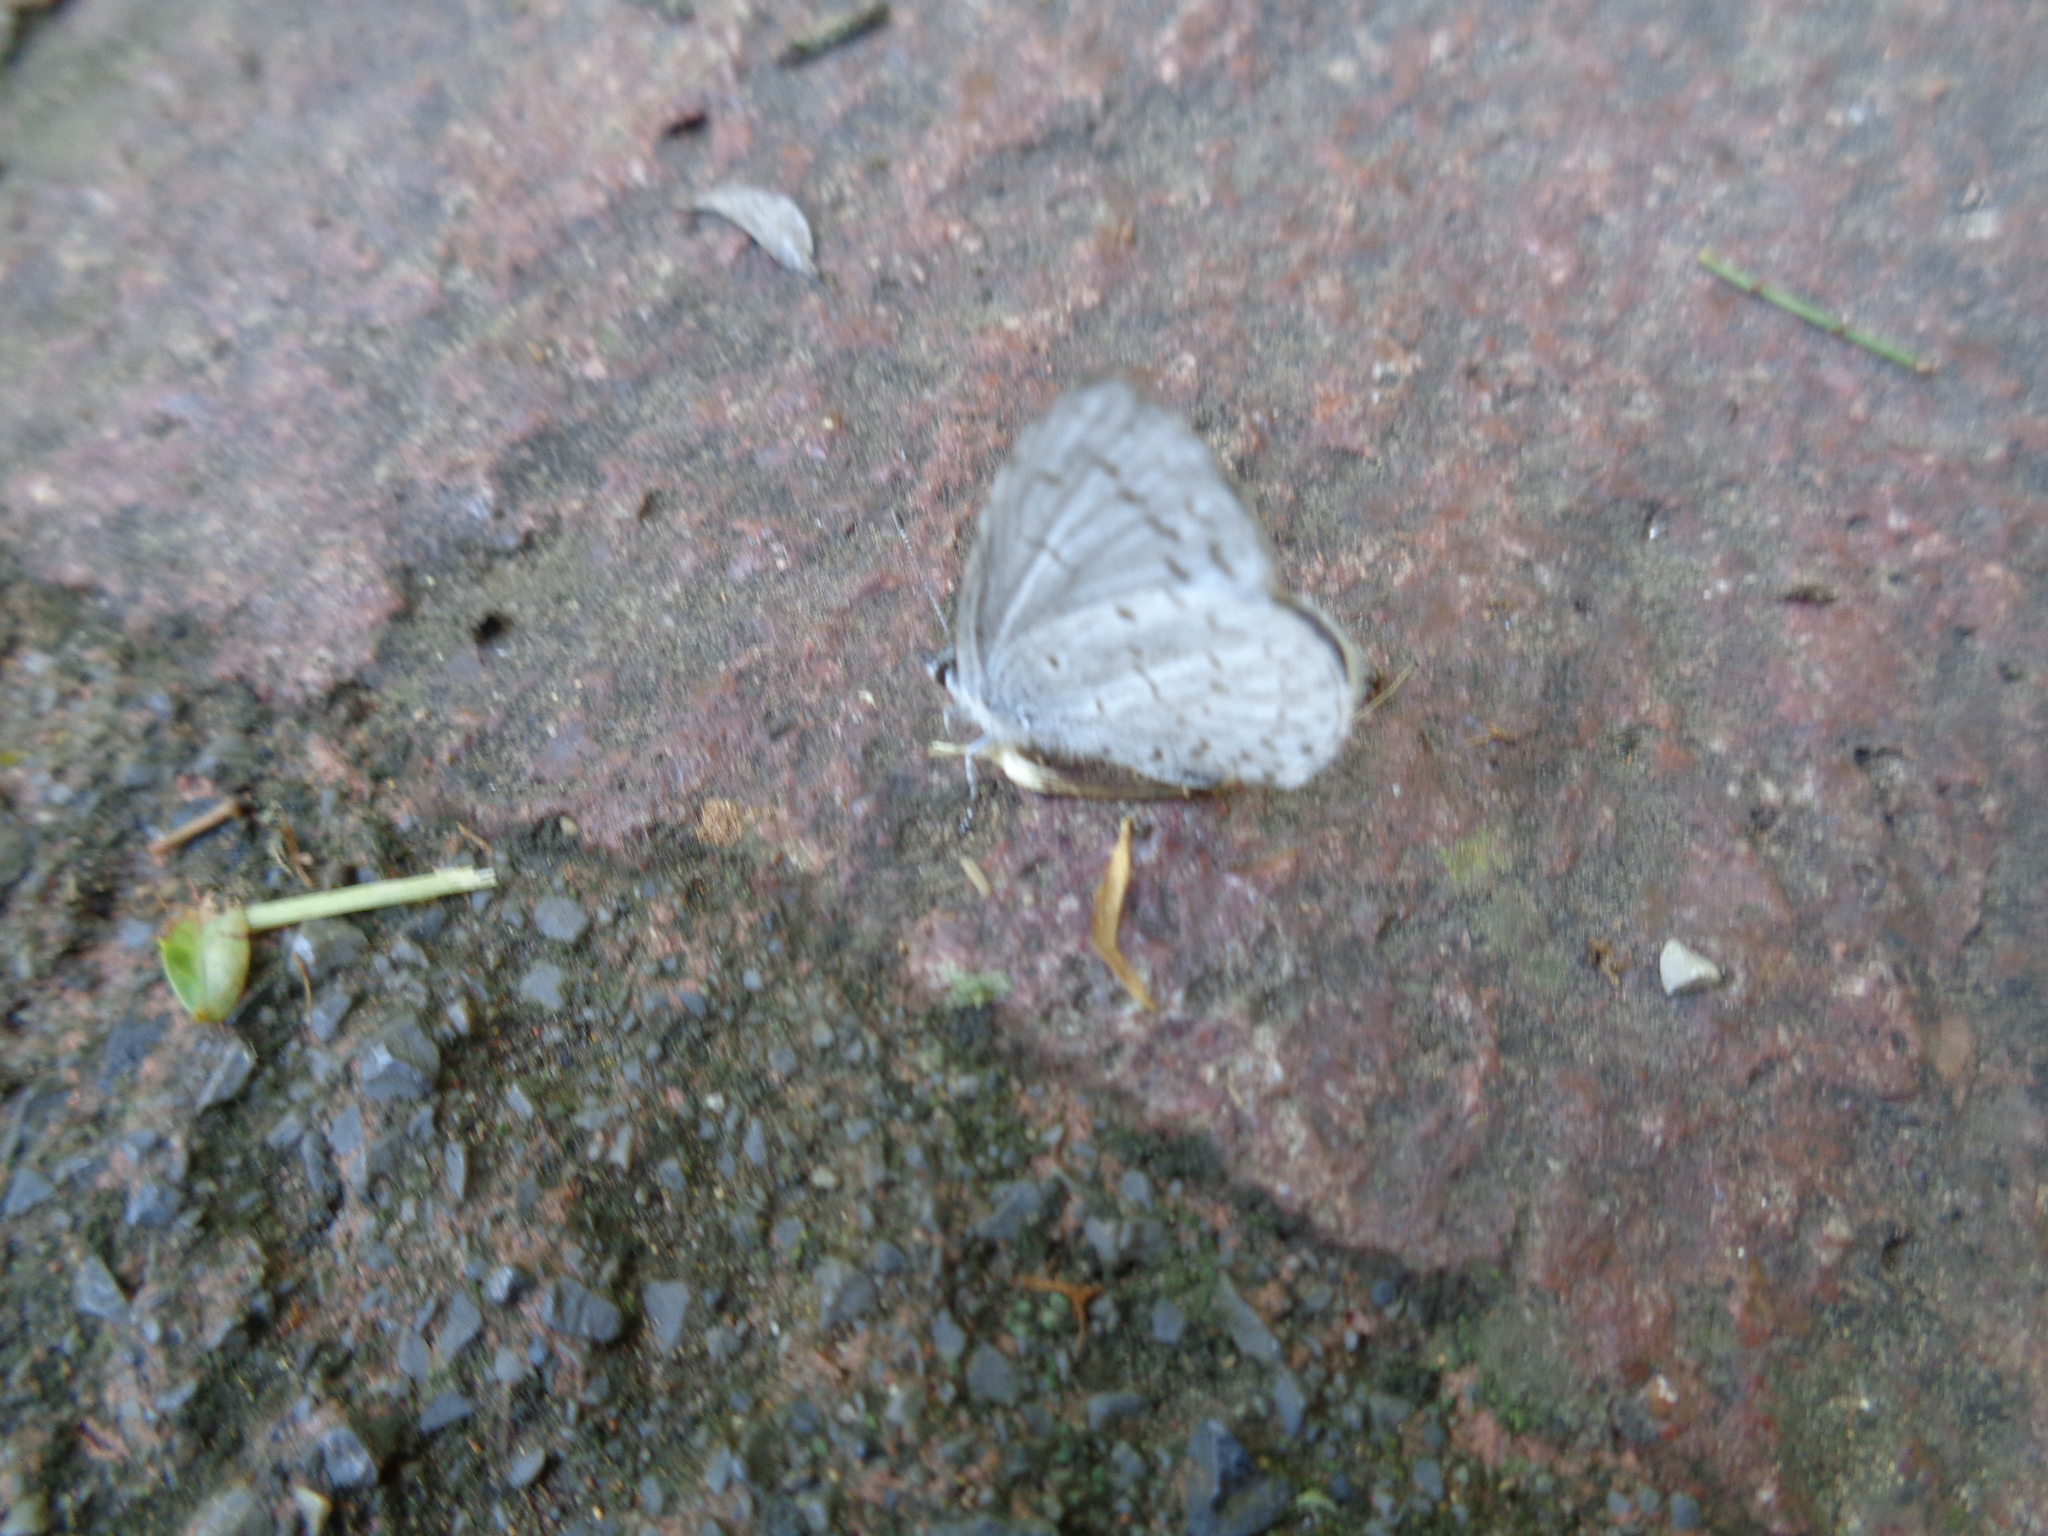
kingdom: Animalia
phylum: Arthropoda
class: Insecta
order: Lepidoptera
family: Lycaenidae
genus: Celastrina
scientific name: Celastrina ladon
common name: Spring azure
